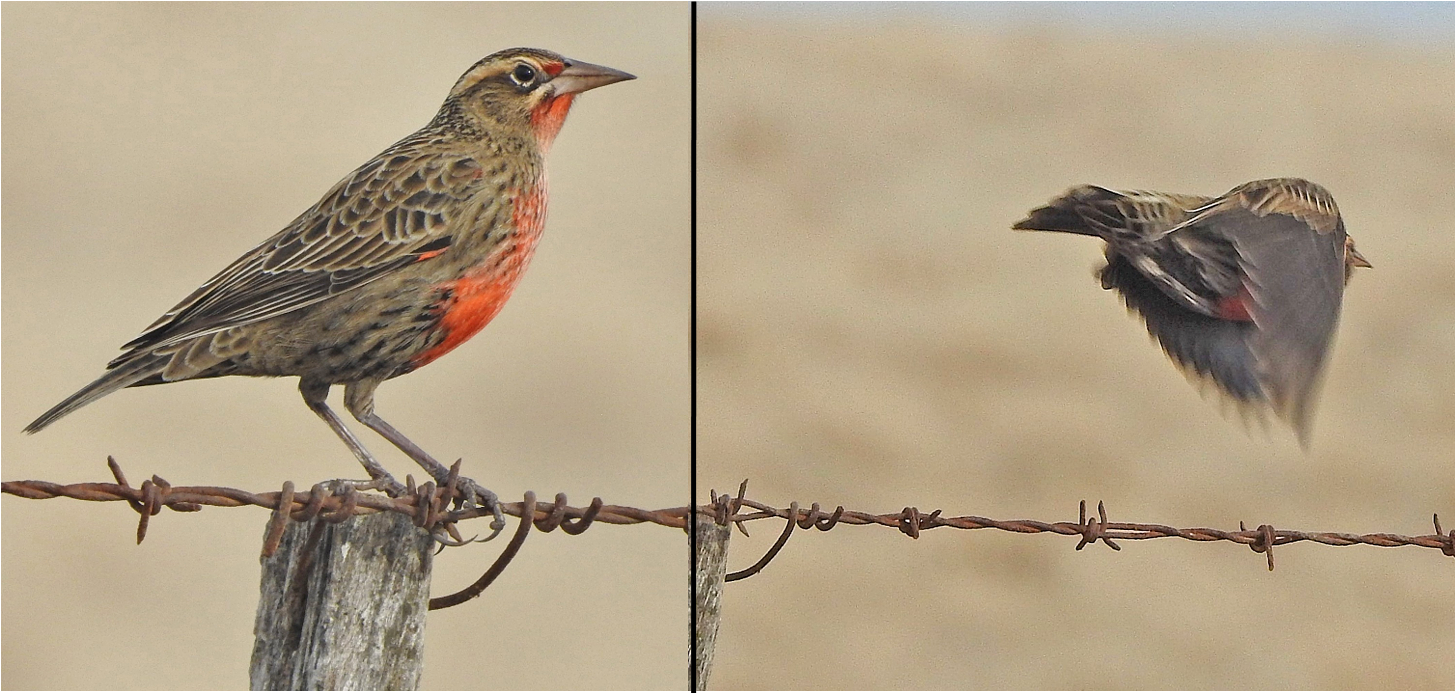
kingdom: Animalia
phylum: Chordata
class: Aves
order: Passeriformes
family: Icteridae
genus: Sturnella
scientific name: Sturnella defilippii
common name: Pampas meadowlark
